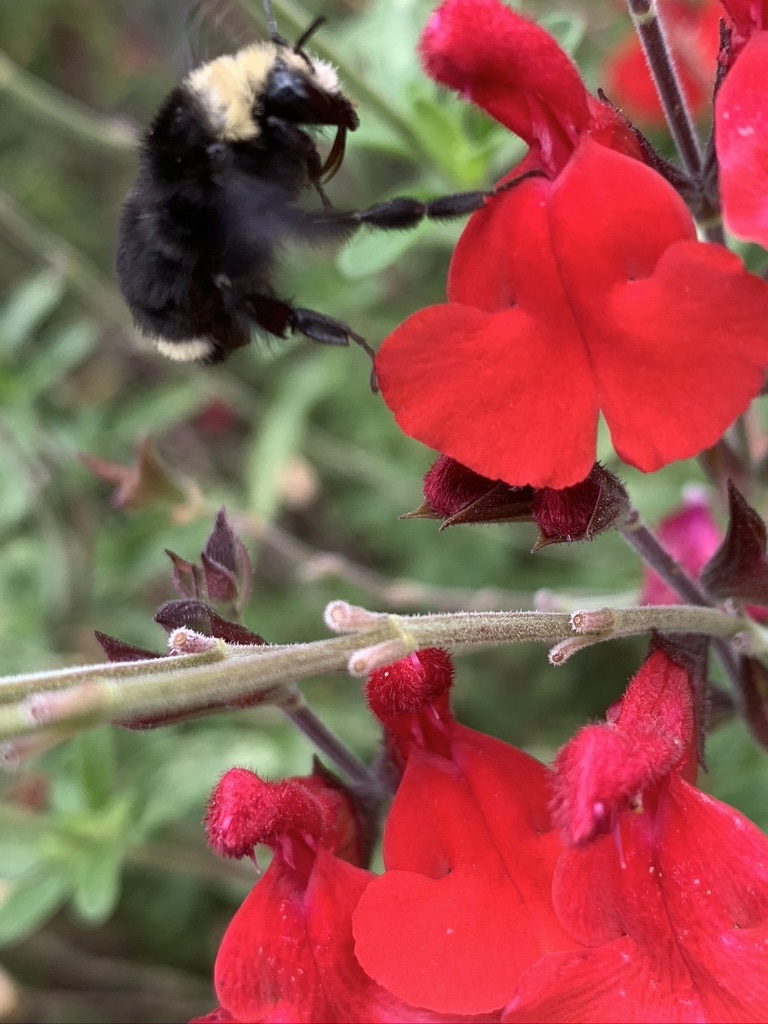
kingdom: Animalia
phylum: Arthropoda
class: Insecta
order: Hymenoptera
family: Apidae
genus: Bombus
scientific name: Bombus vosnesenskii
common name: Vosnesensky bumble bee
